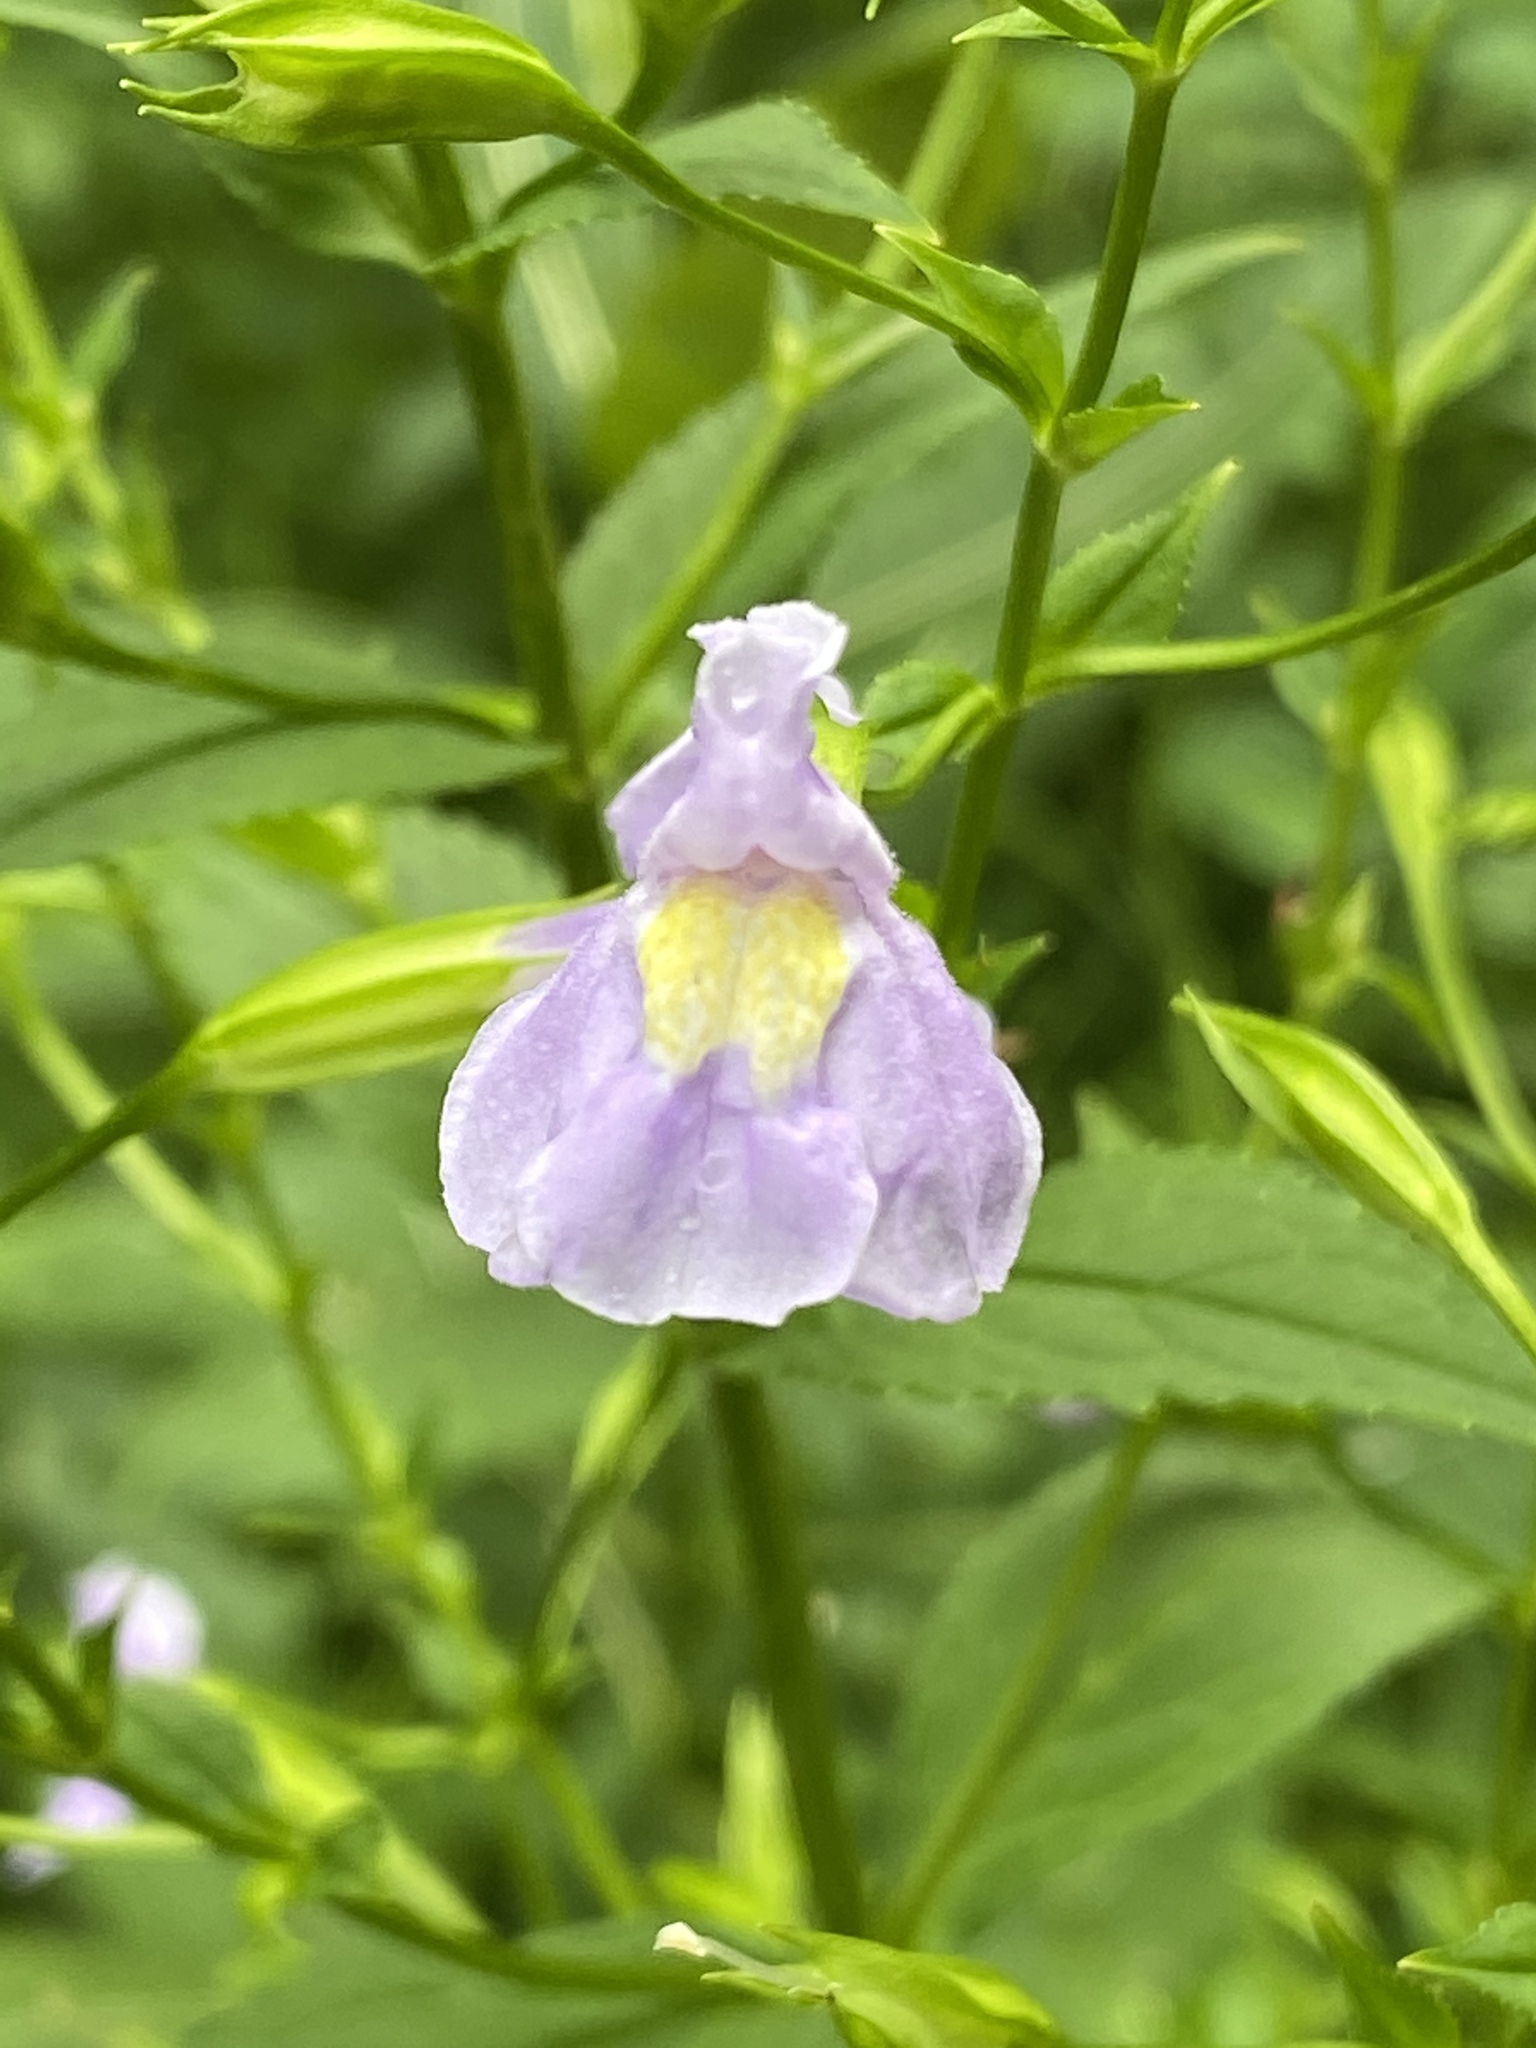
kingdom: Plantae
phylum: Tracheophyta
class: Magnoliopsida
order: Lamiales
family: Phrymaceae
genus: Mimulus
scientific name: Mimulus ringens
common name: Allegheny monkeyflower
